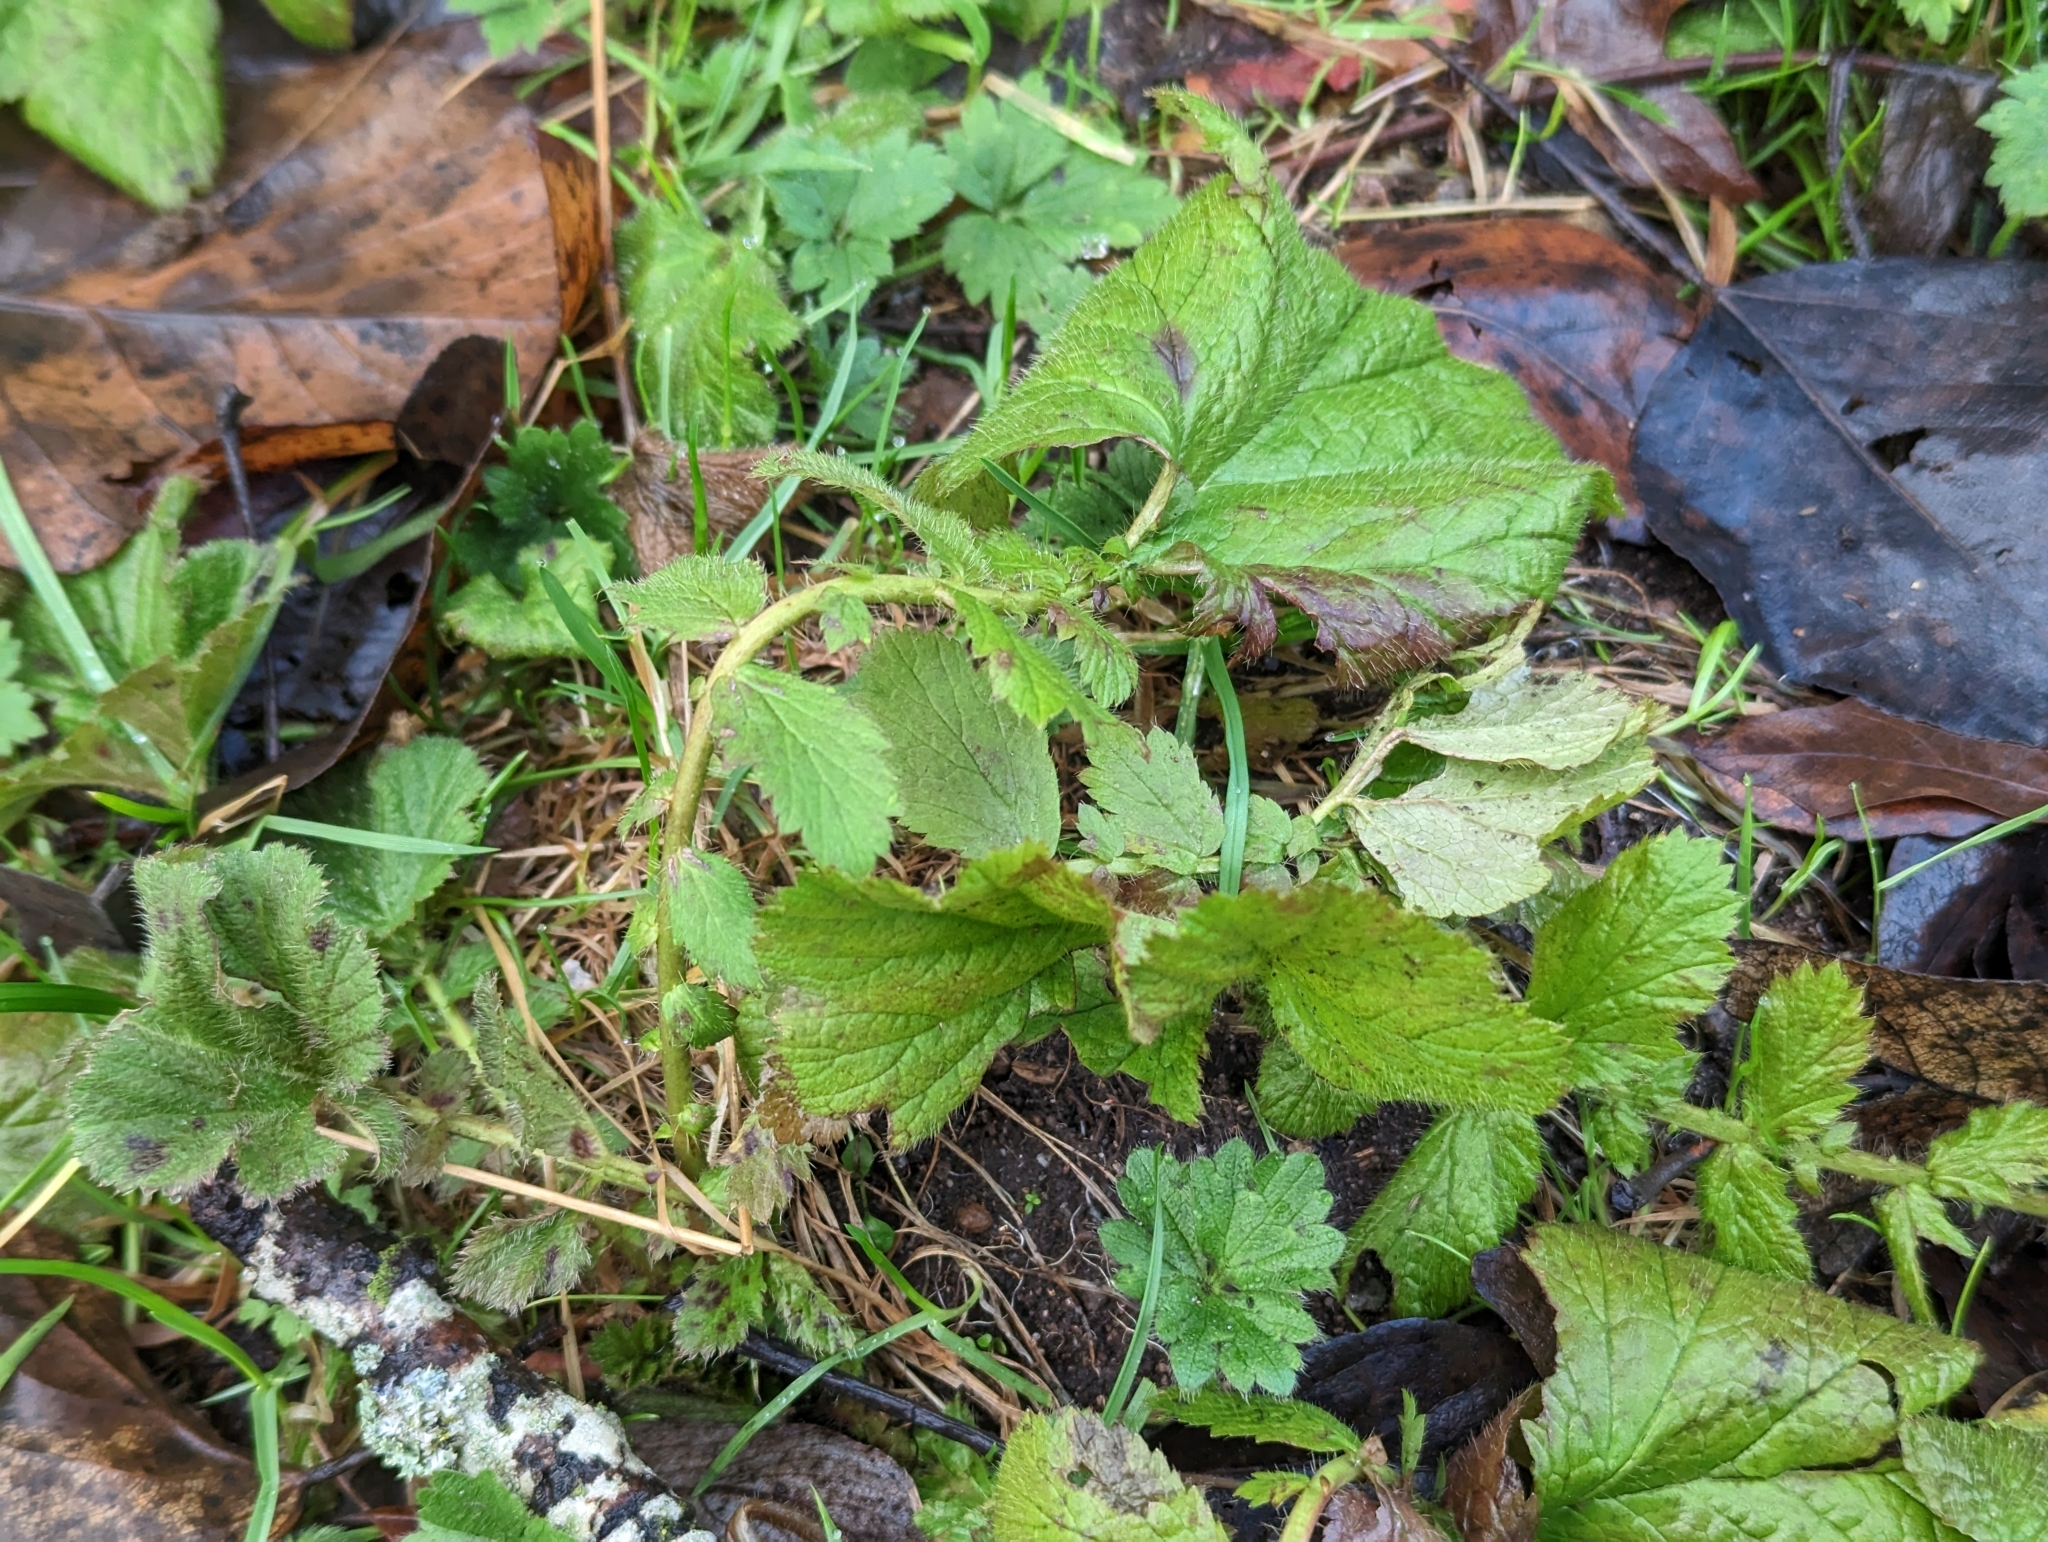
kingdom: Plantae
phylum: Tracheophyta
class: Magnoliopsida
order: Rosales
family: Rosaceae
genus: Geum
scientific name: Geum macrophyllum
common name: Large-leaved avens
